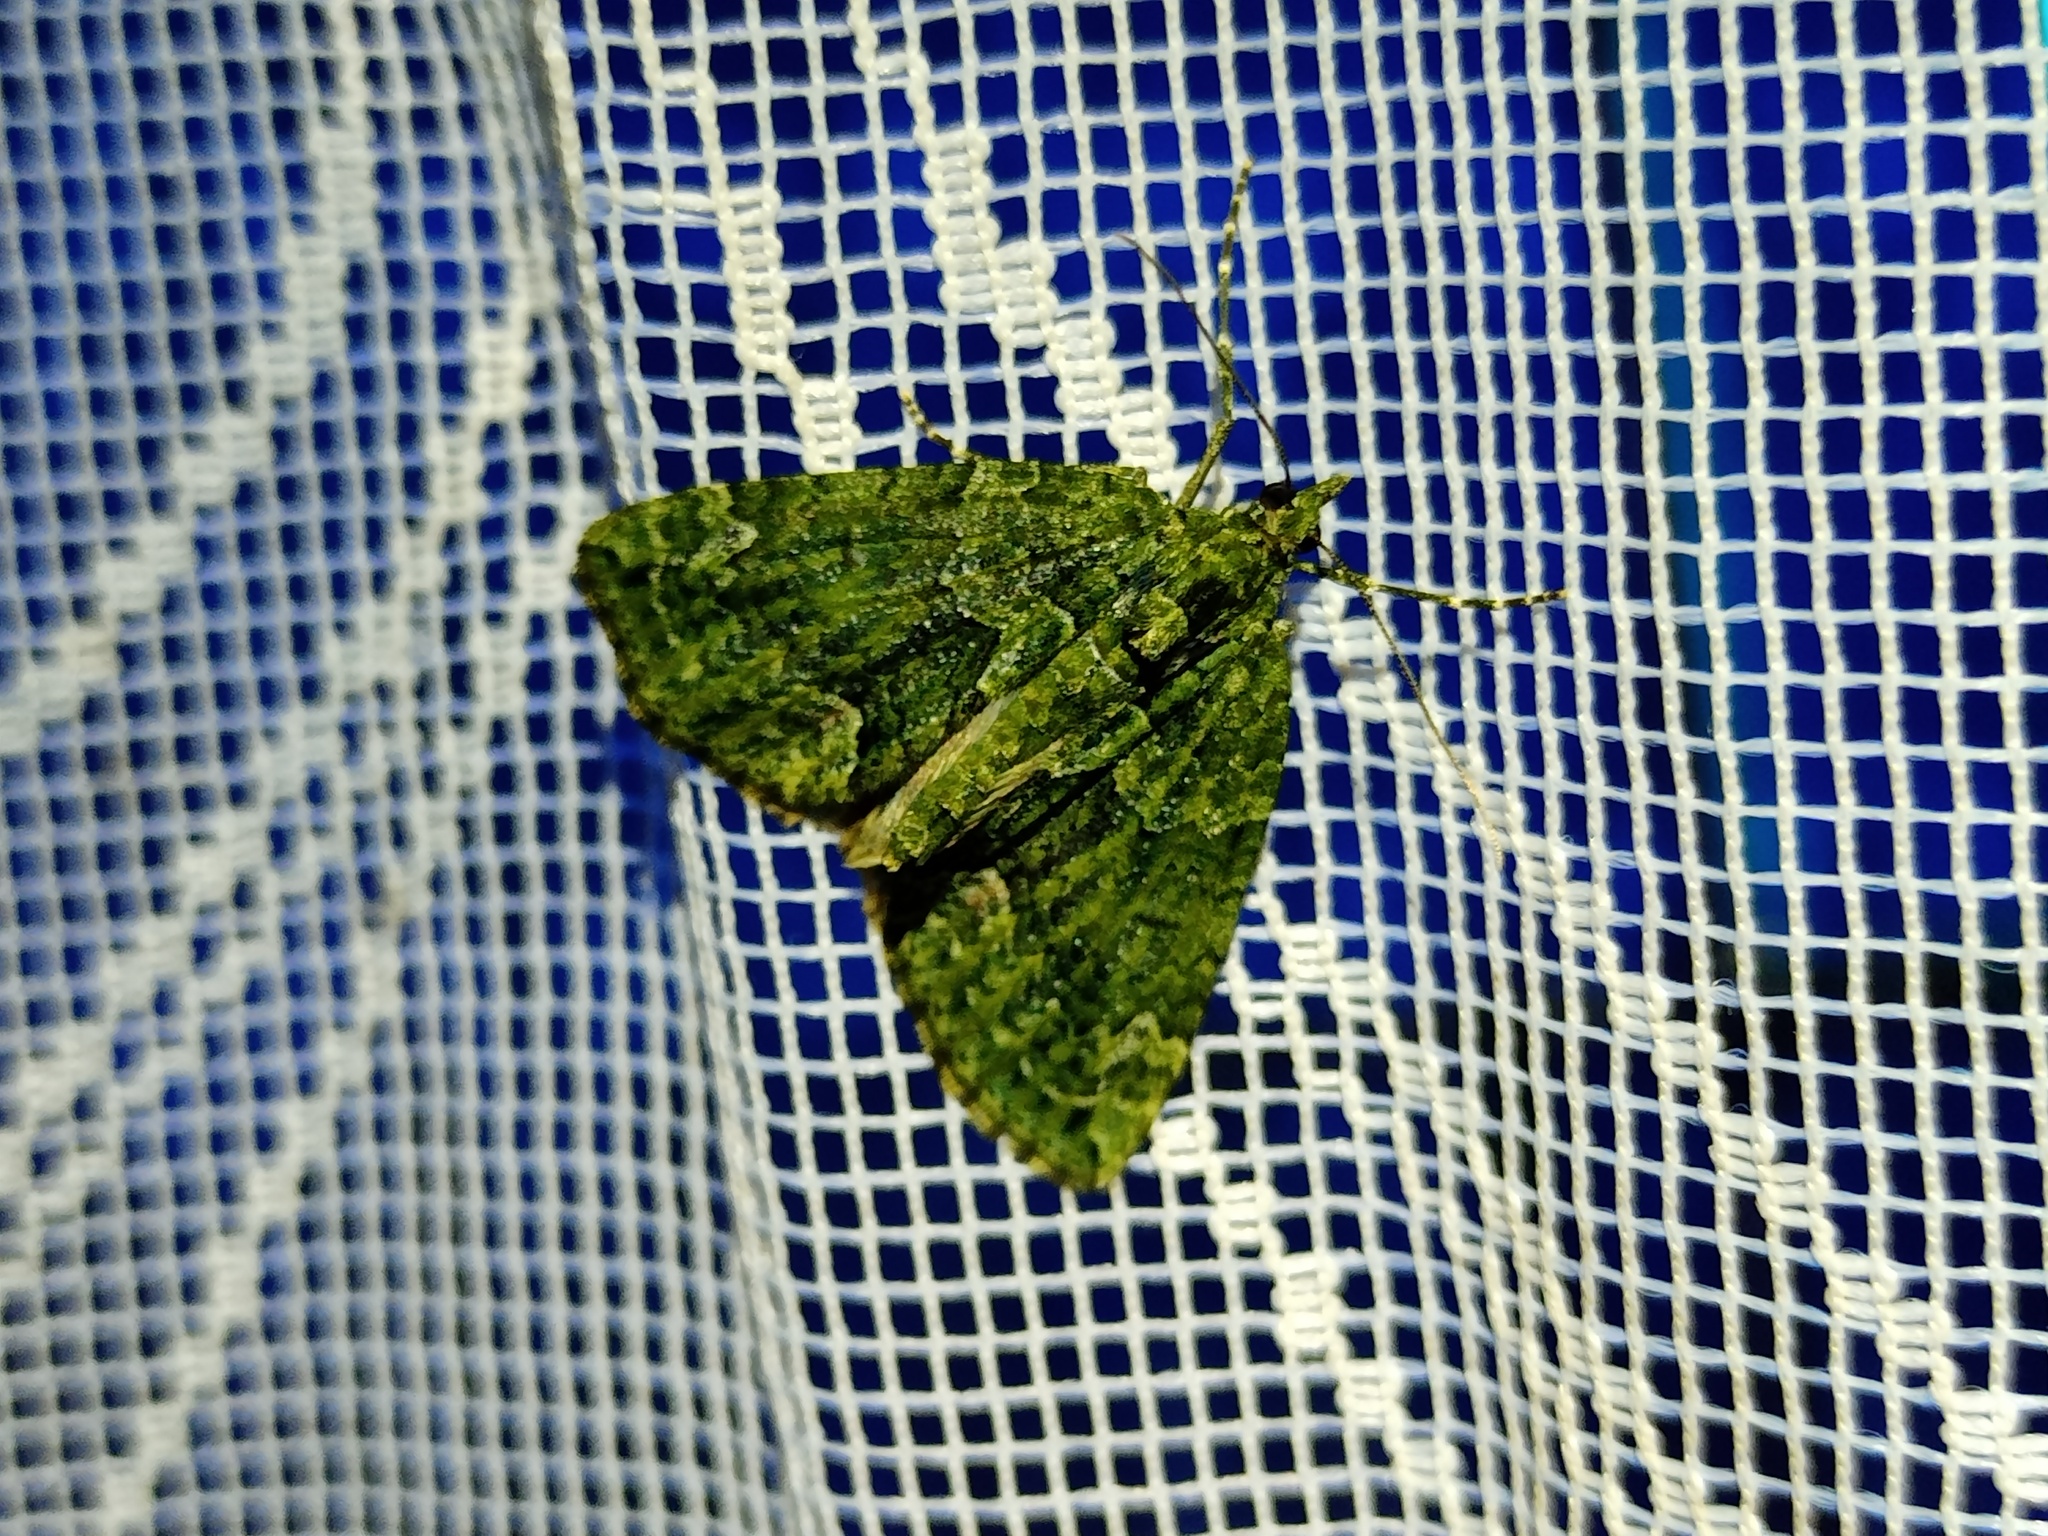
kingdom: Animalia
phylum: Arthropoda
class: Insecta
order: Lepidoptera
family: Geometridae
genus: Chloroclysta
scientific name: Chloroclysta siterata
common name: Red-green carpet
